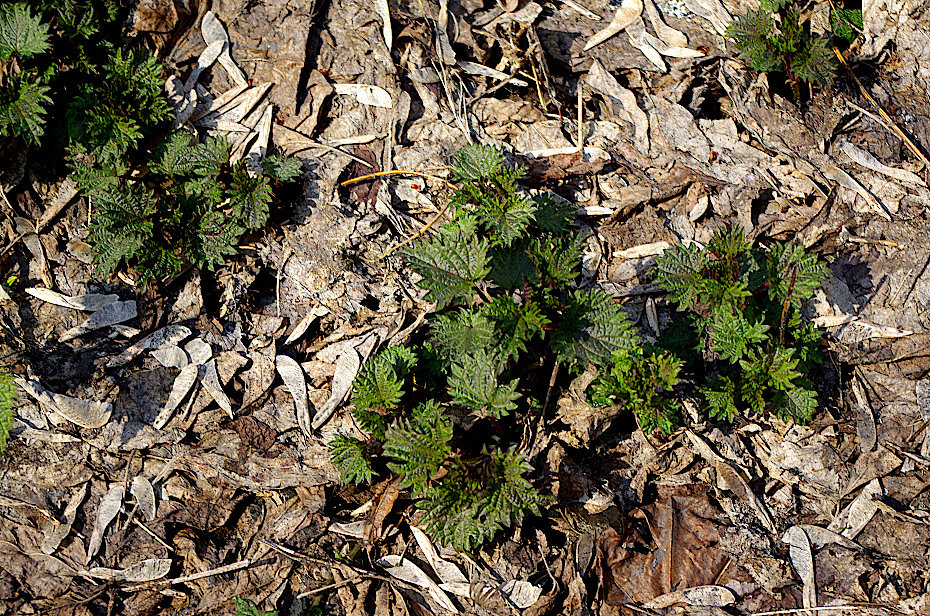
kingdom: Plantae
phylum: Tracheophyta
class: Magnoliopsida
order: Rosales
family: Urticaceae
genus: Urtica
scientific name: Urtica dioica
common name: Common nettle
